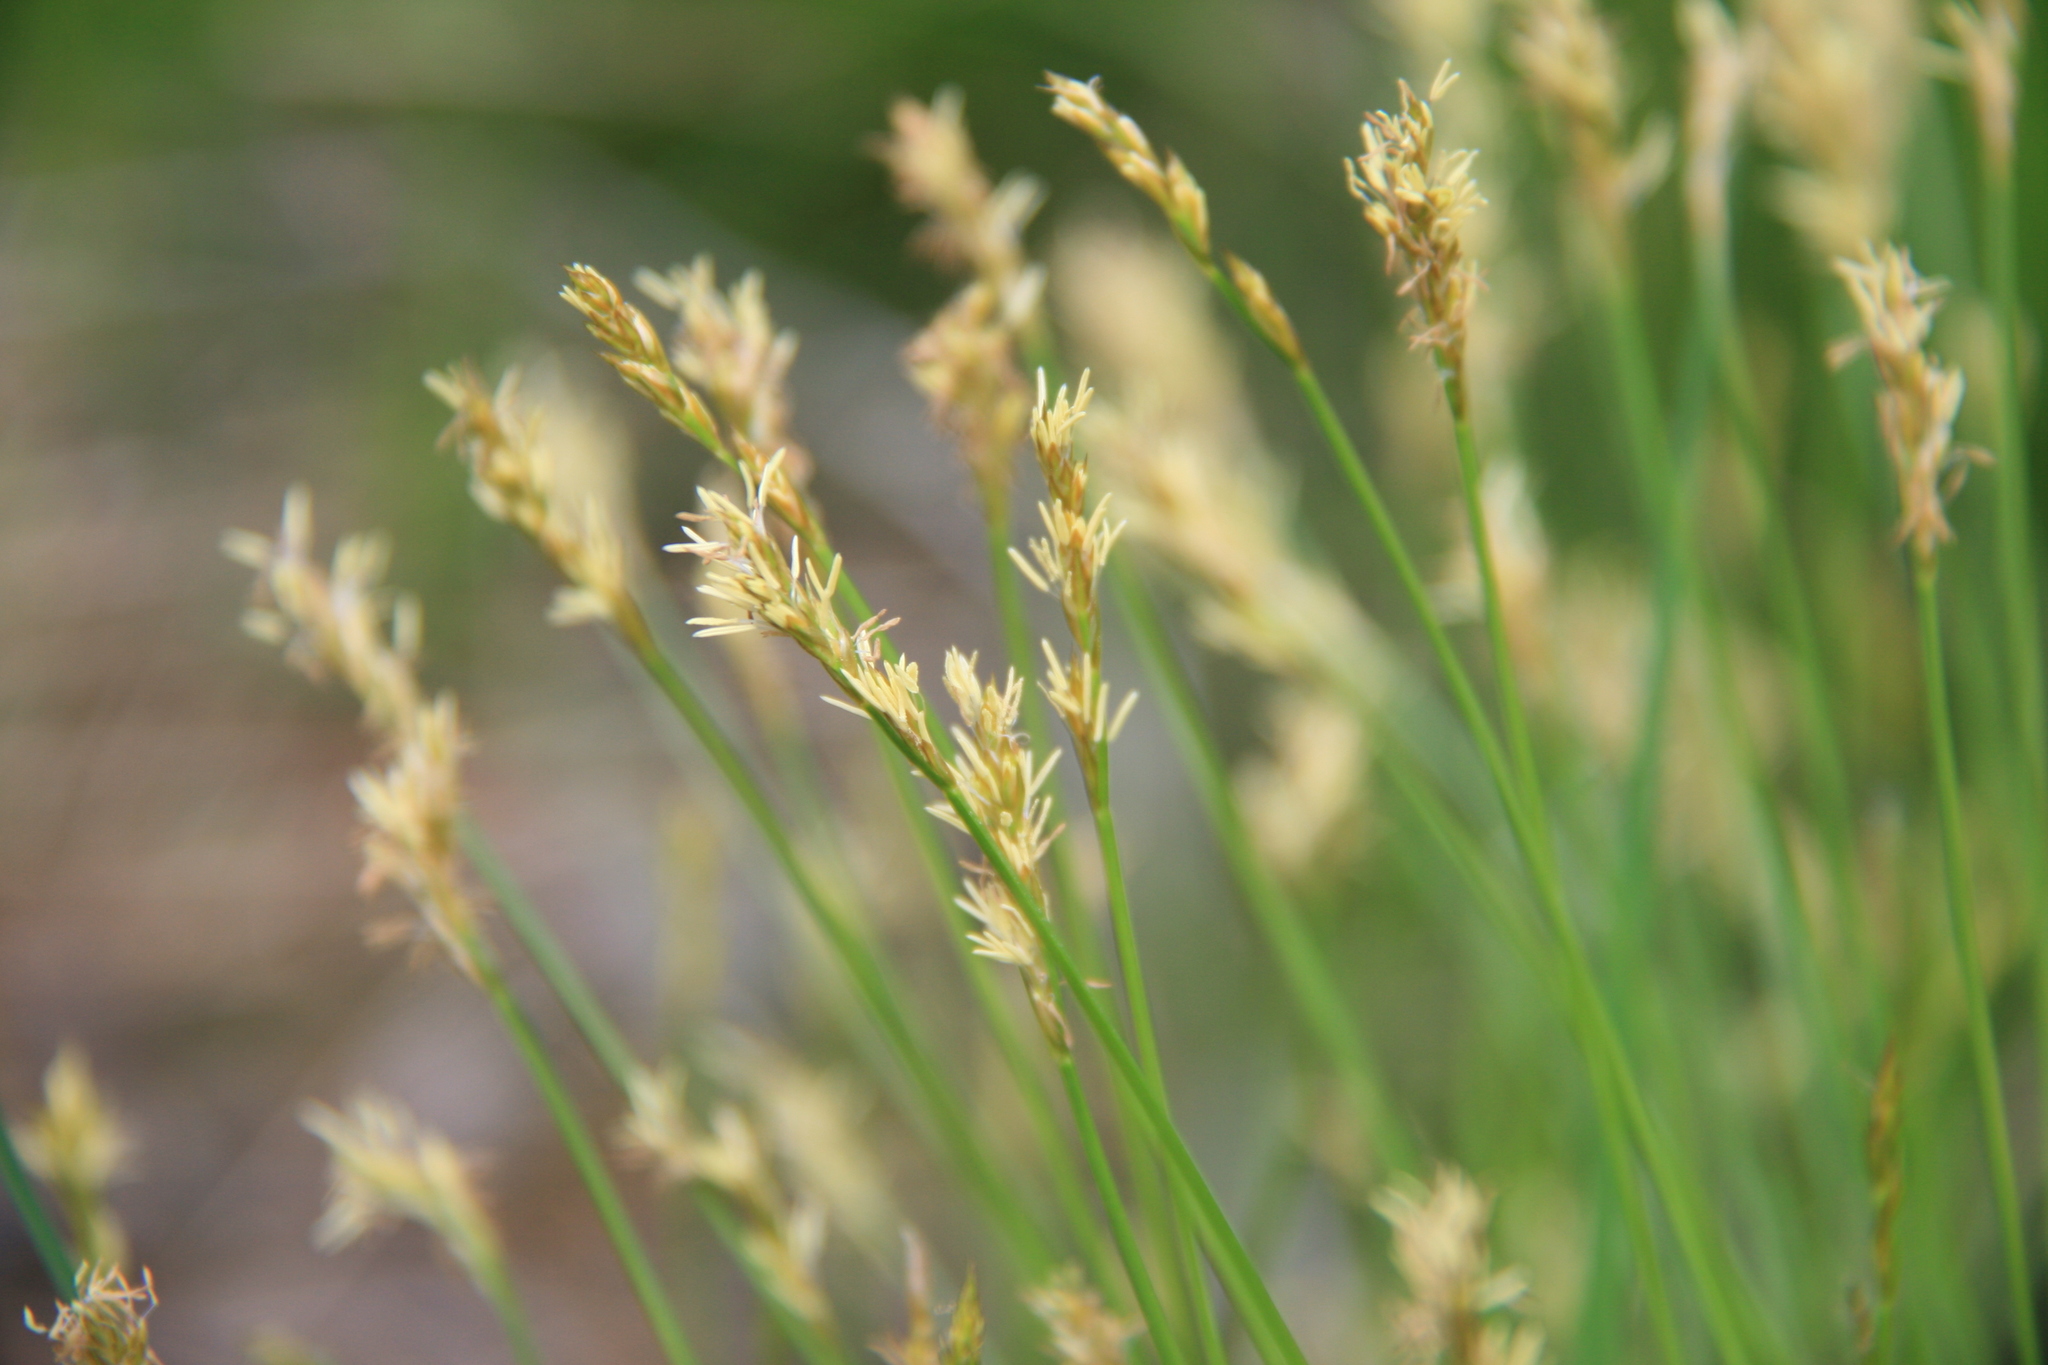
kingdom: Plantae
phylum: Tracheophyta
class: Liliopsida
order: Poales
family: Cyperaceae
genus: Carex
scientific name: Carex bromoides
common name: Brome hummock sedge
